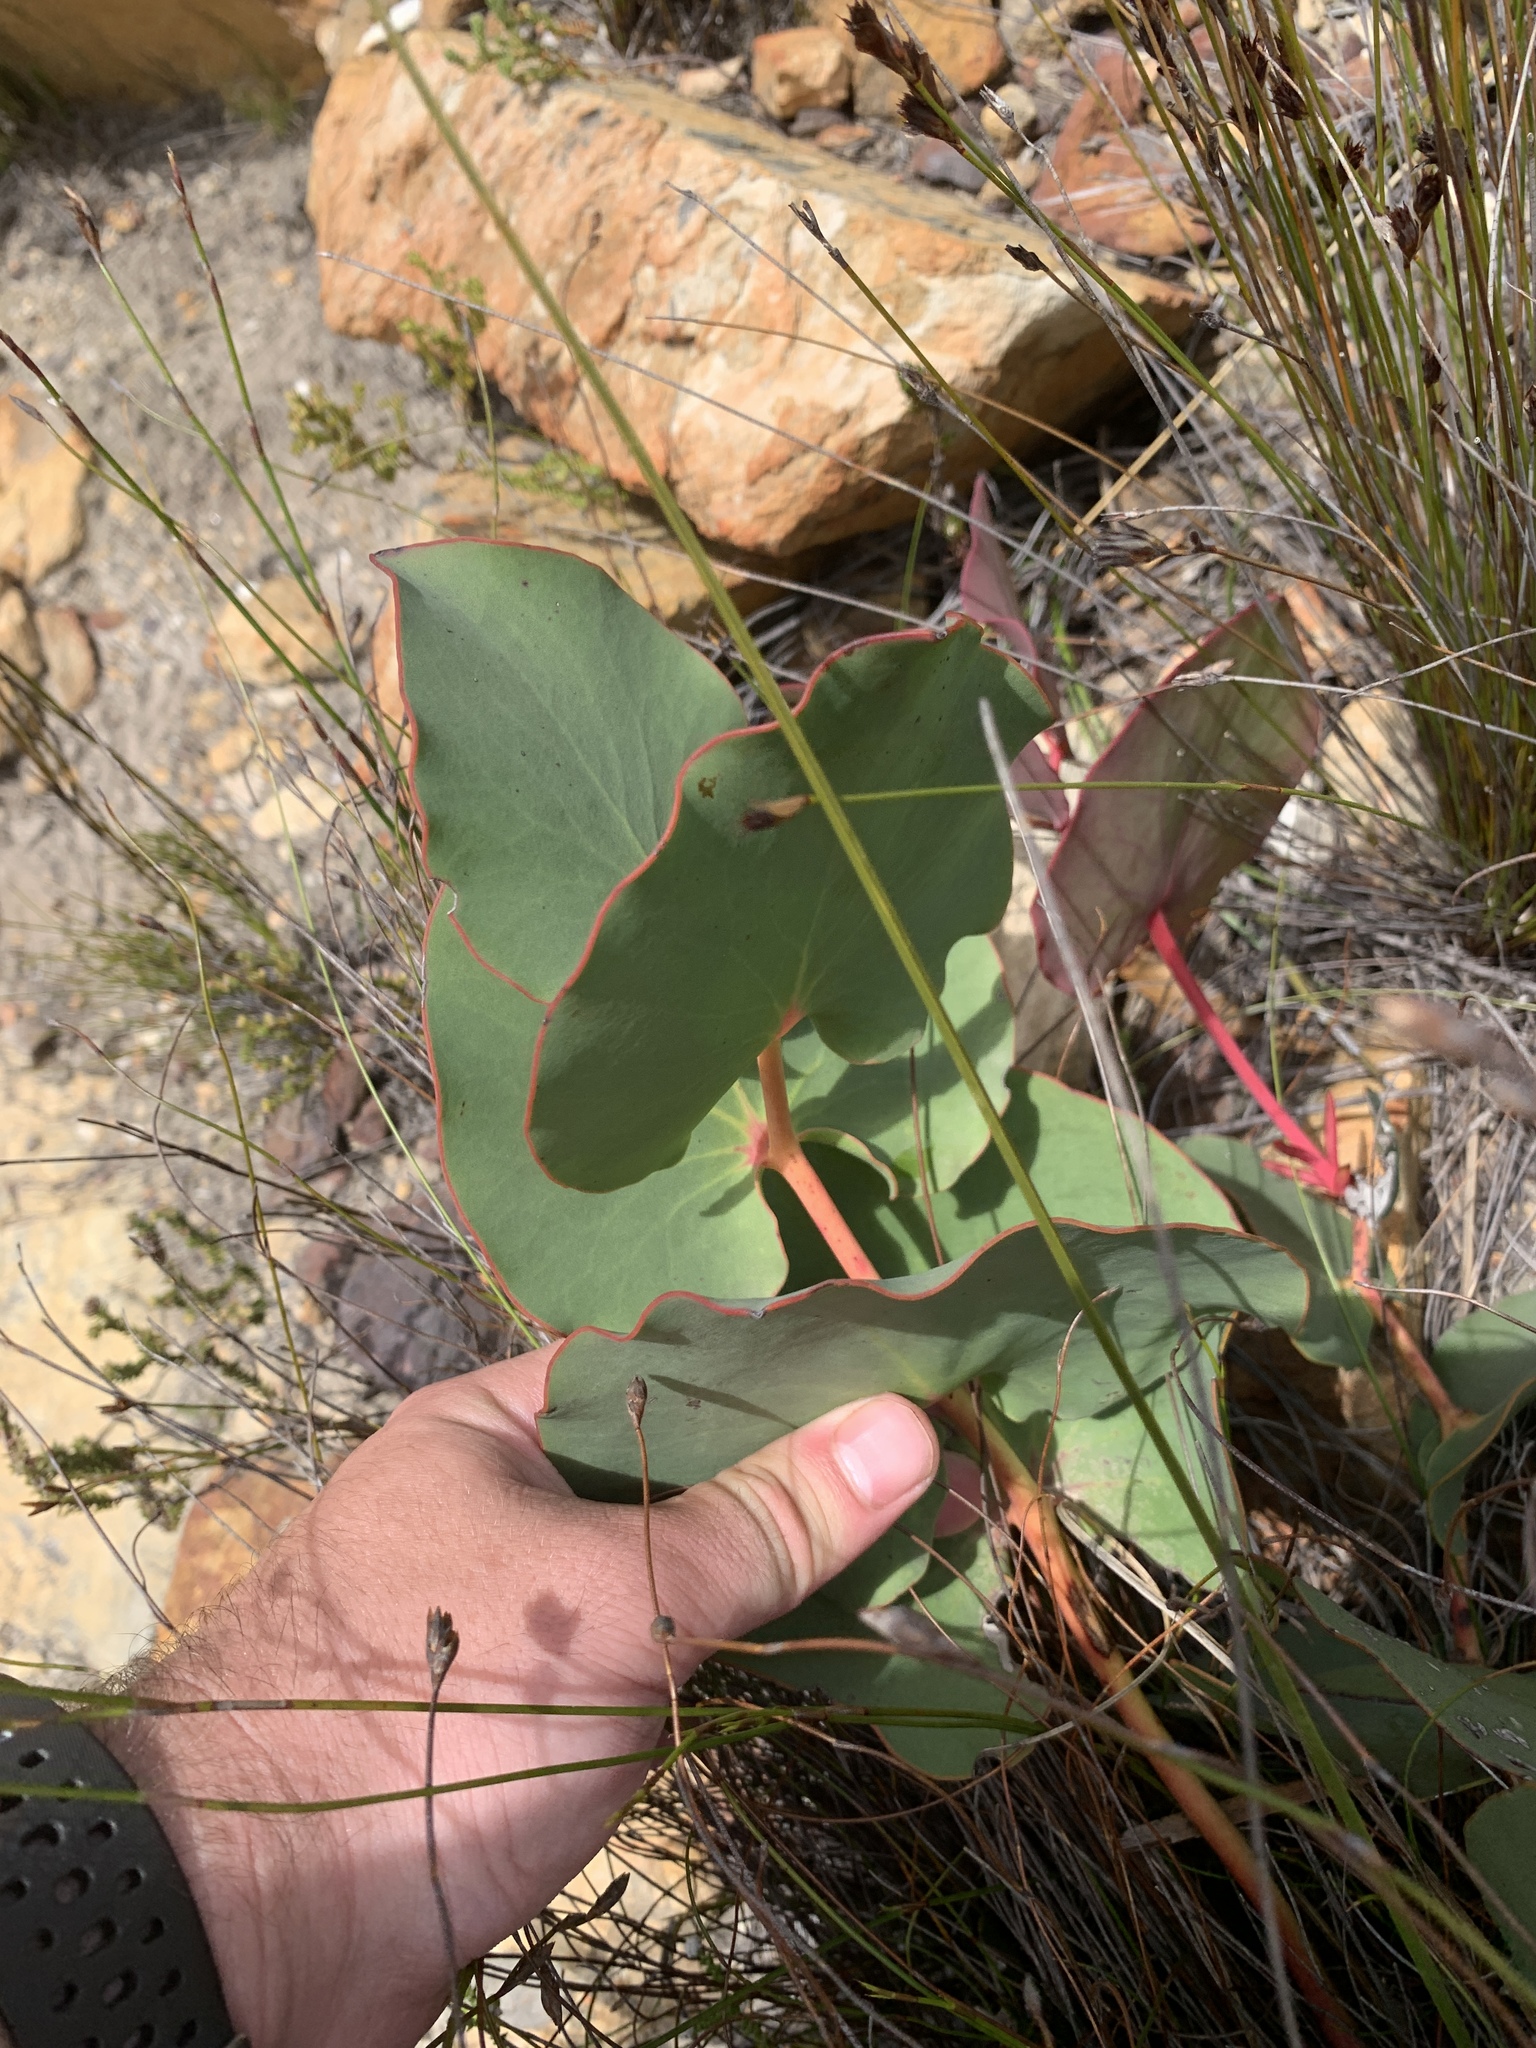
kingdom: Plantae
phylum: Tracheophyta
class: Magnoliopsida
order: Proteales
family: Proteaceae
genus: Protea
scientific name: Protea cordata
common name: Heart-leaf sugarbush
